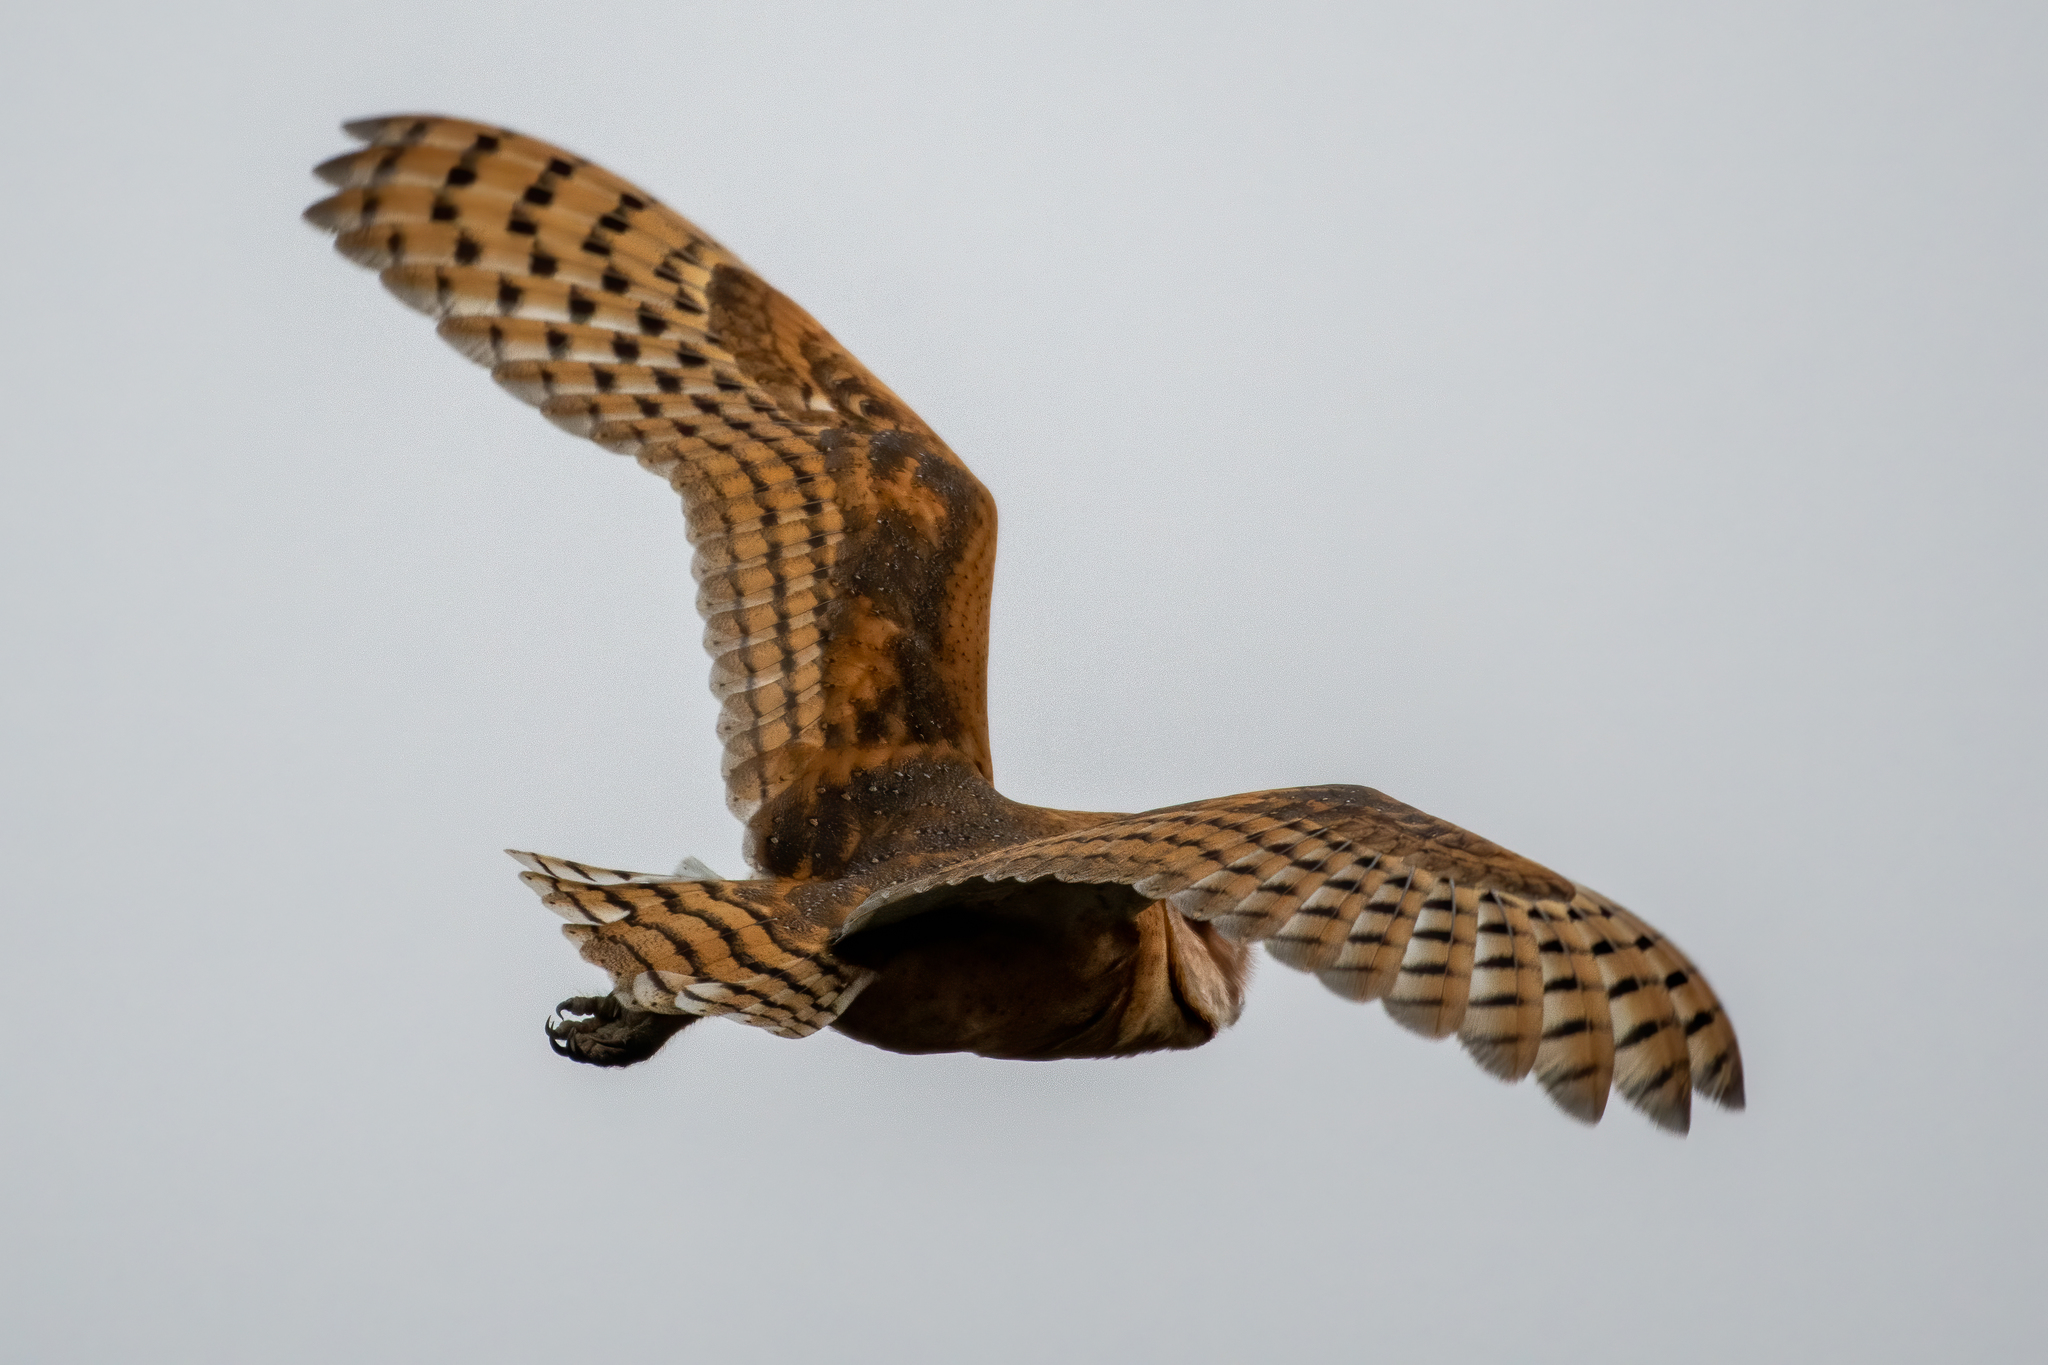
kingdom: Animalia
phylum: Chordata
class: Aves
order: Strigiformes
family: Tytonidae
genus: Tyto
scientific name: Tyto alba
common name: Barn owl
